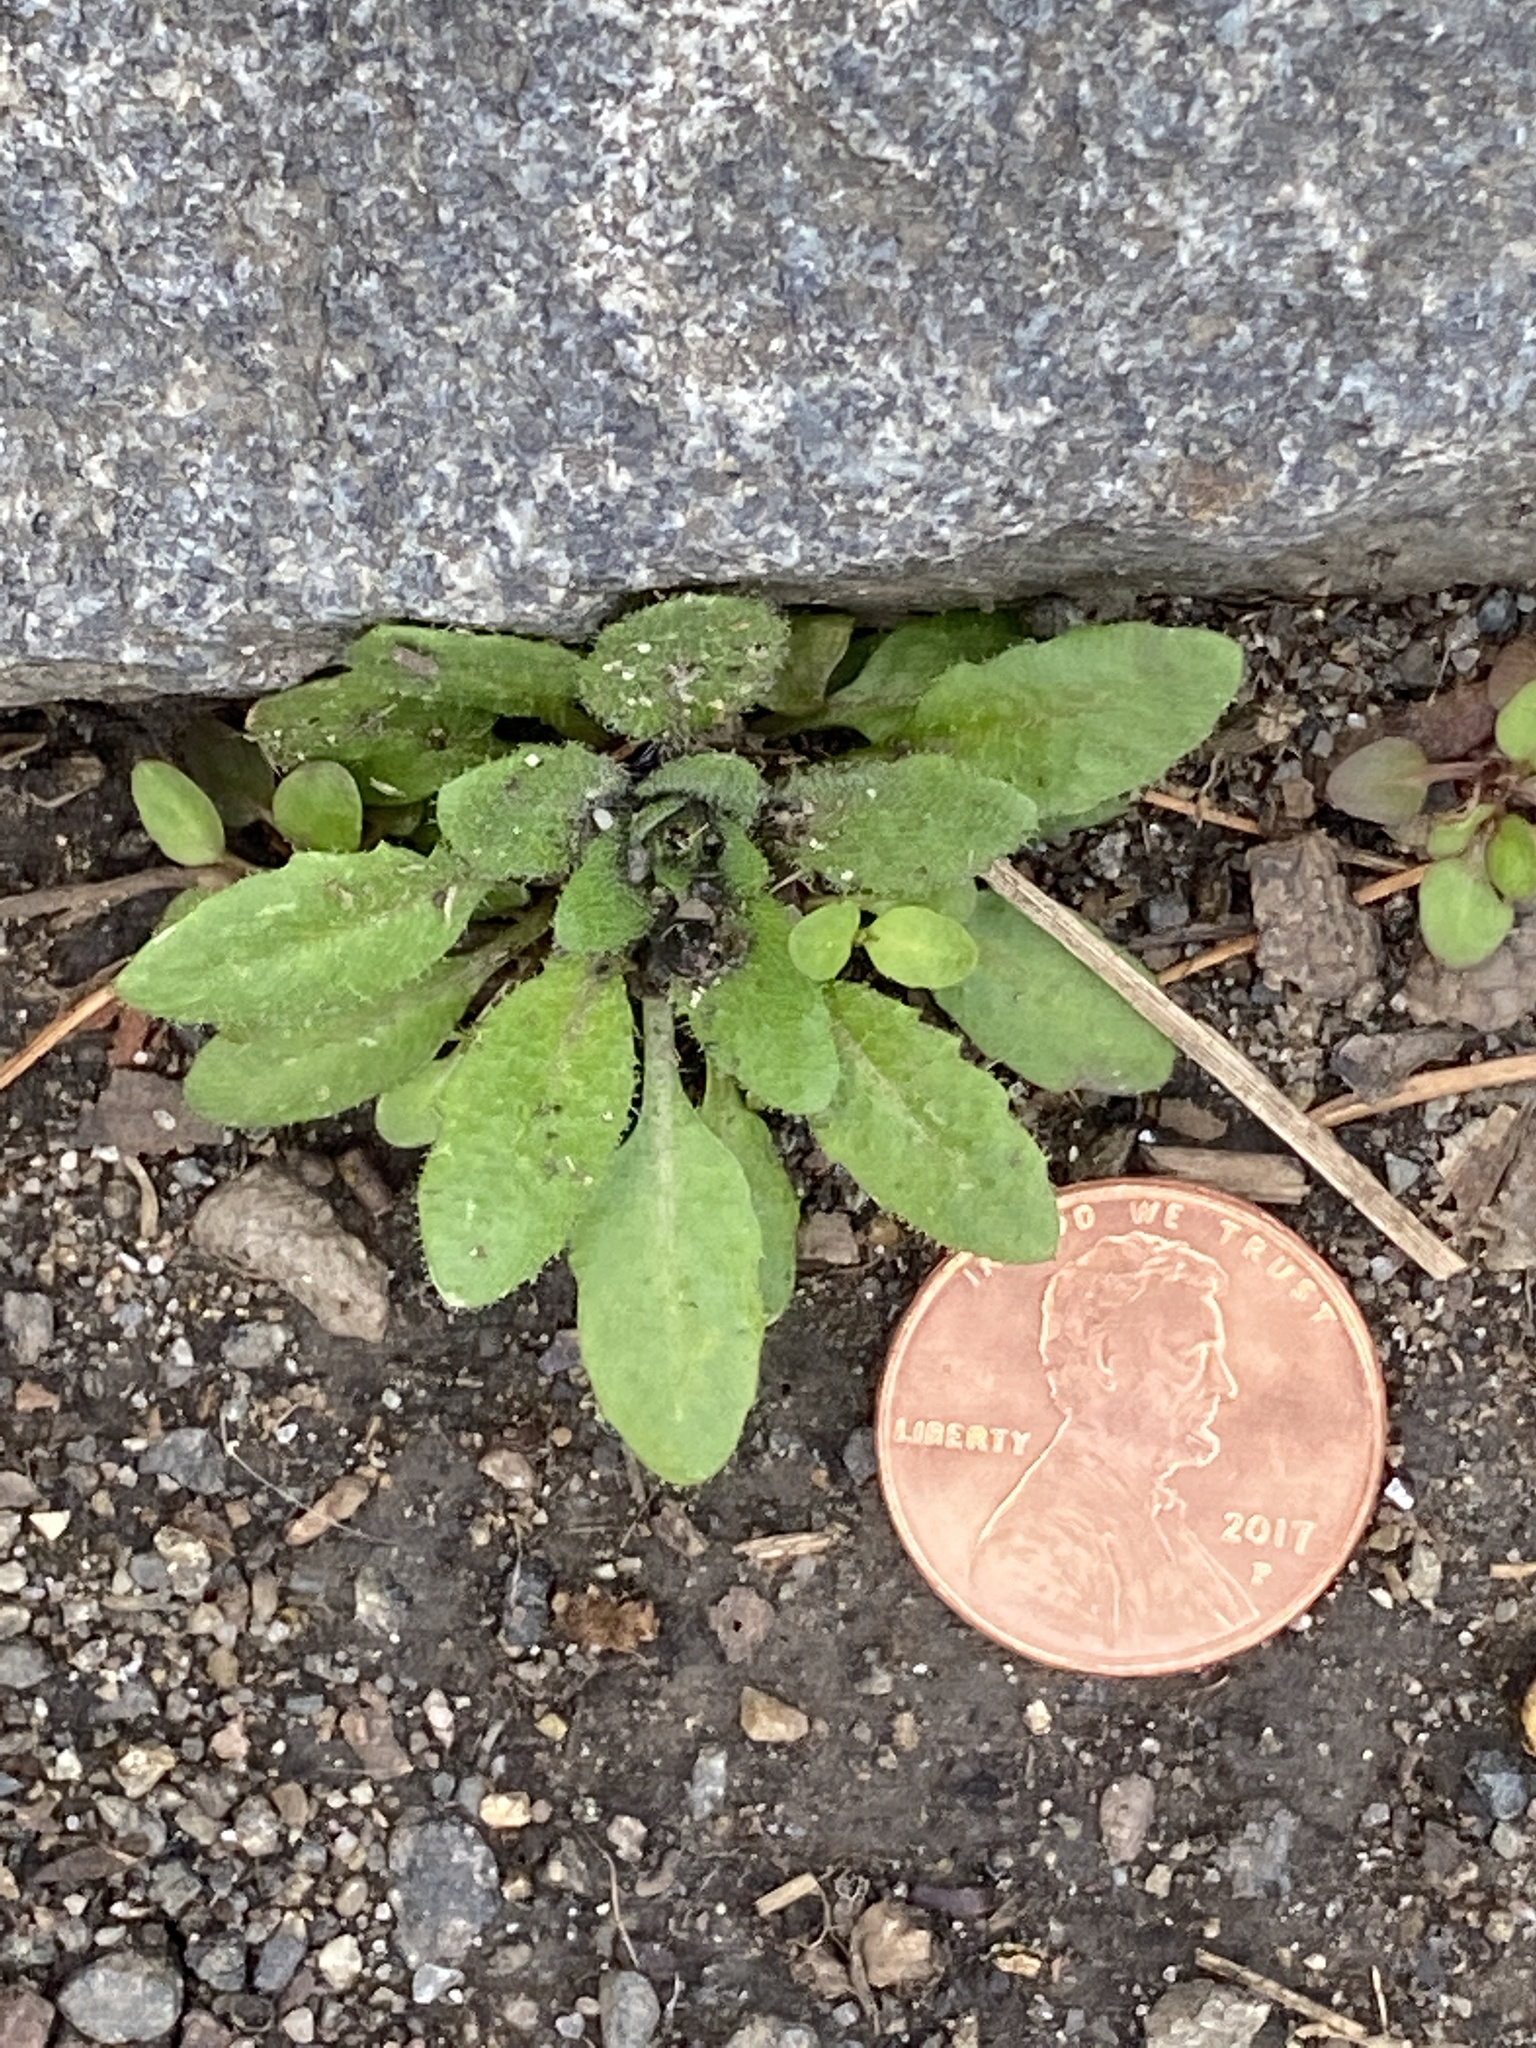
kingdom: Plantae
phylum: Tracheophyta
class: Magnoliopsida
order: Brassicales
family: Brassicaceae
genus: Arabidopsis
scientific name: Arabidopsis thaliana
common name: Thale cress
